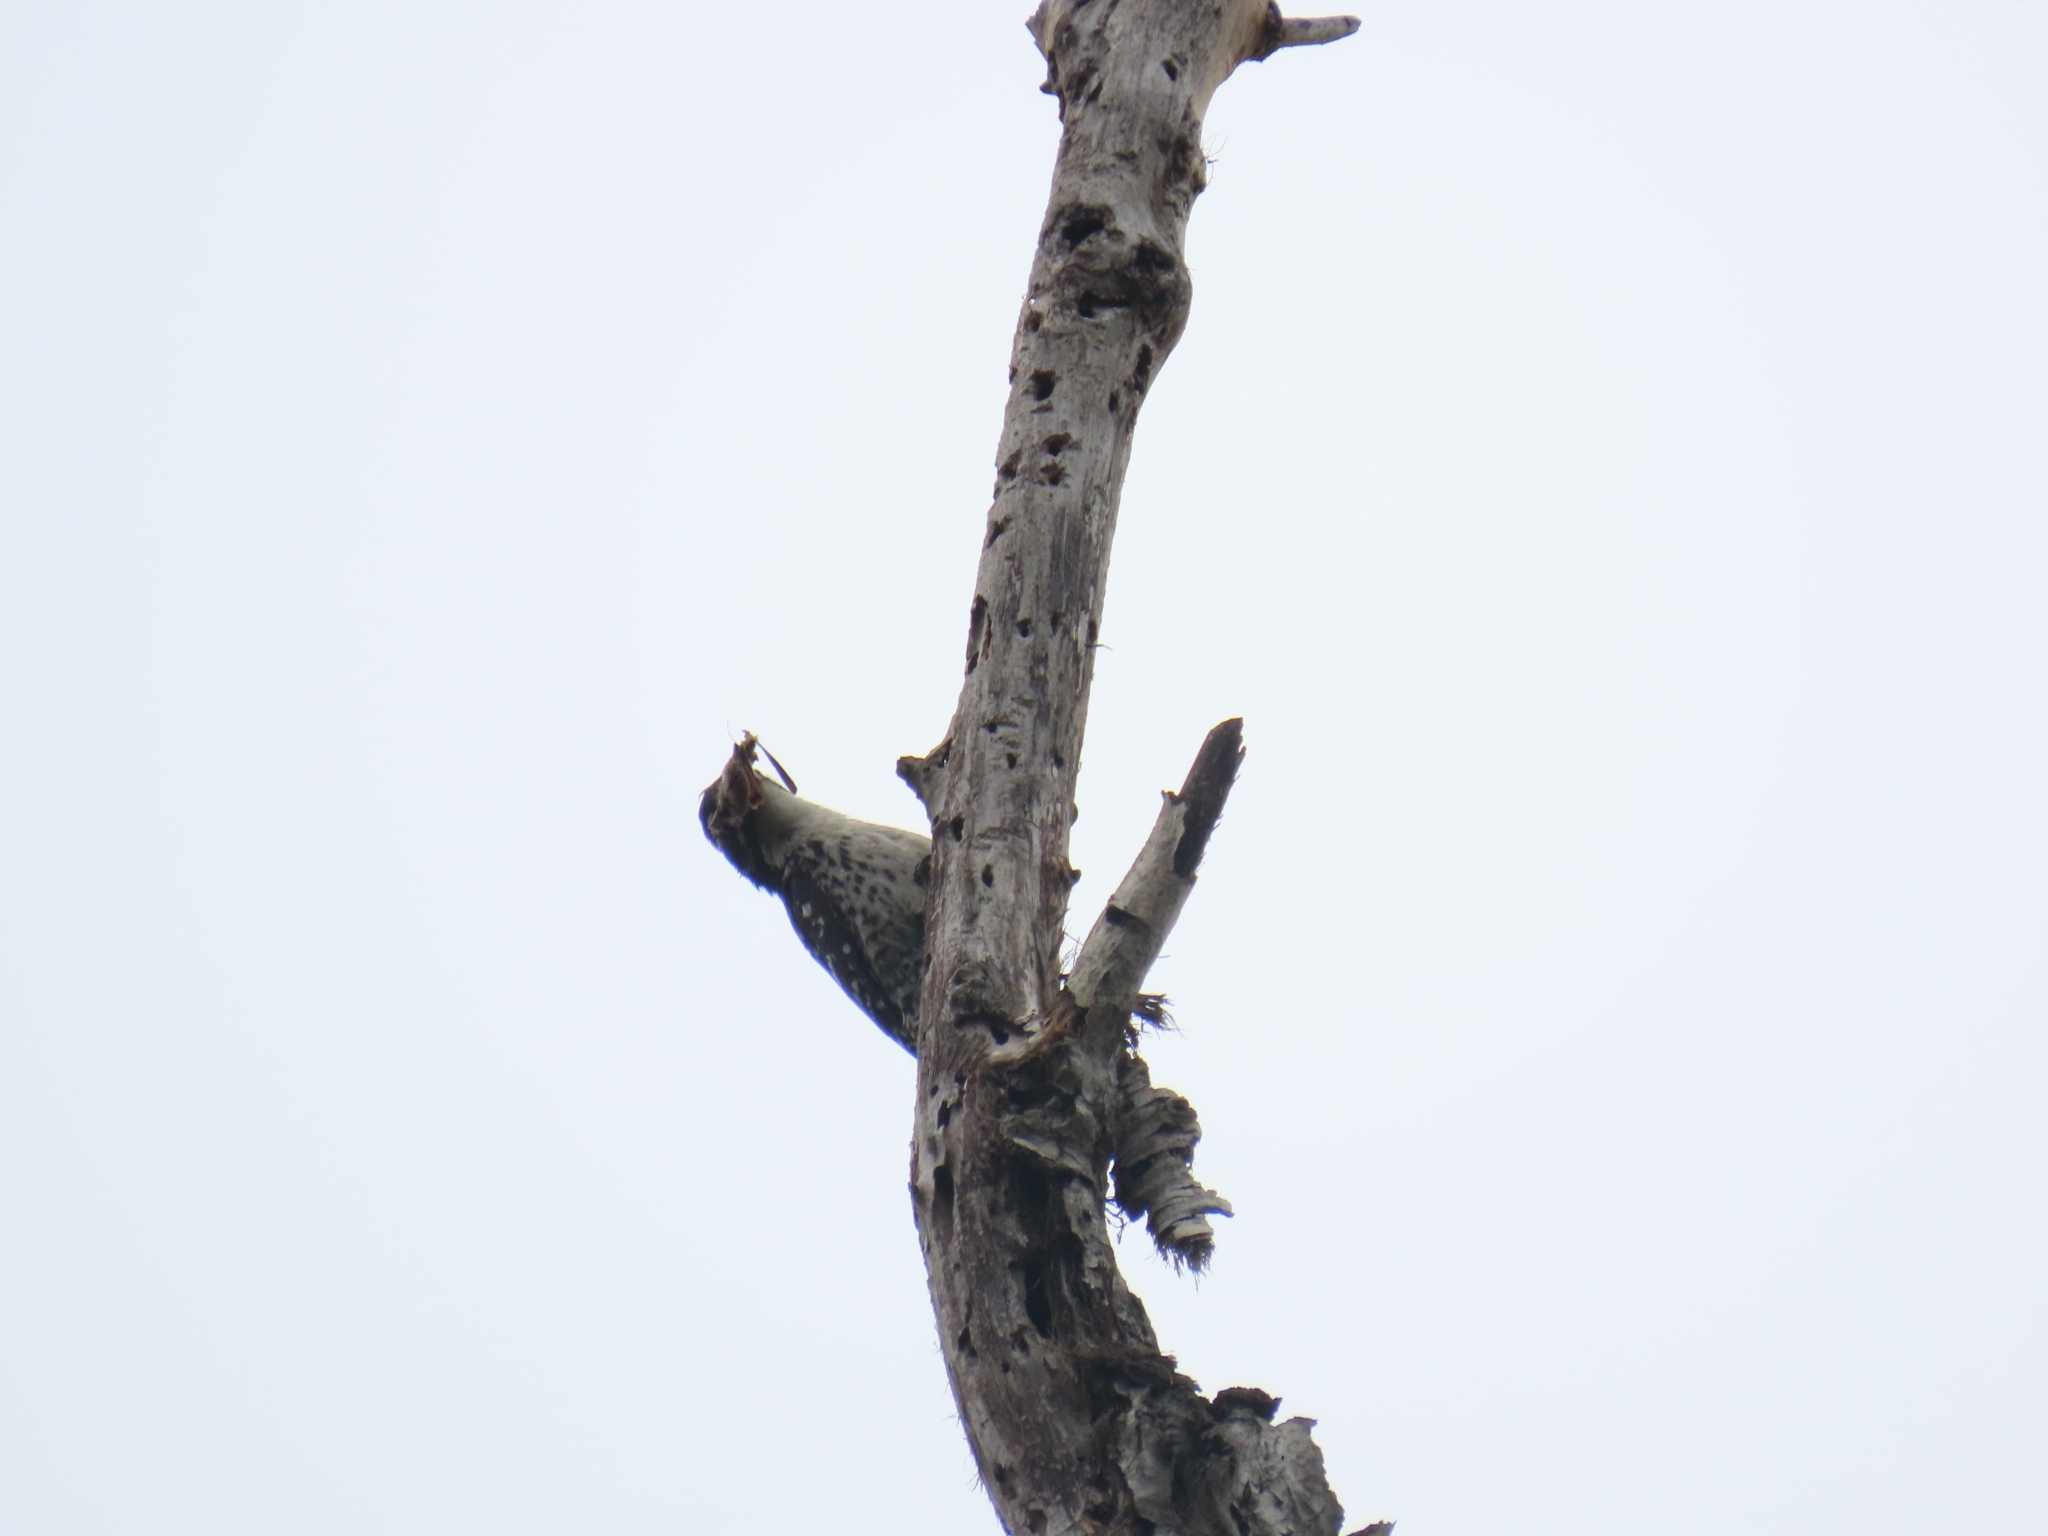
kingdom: Animalia
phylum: Chordata
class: Aves
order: Piciformes
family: Picidae
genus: Dryobates
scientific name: Dryobates nuttallii
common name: Nuttall's woodpecker
